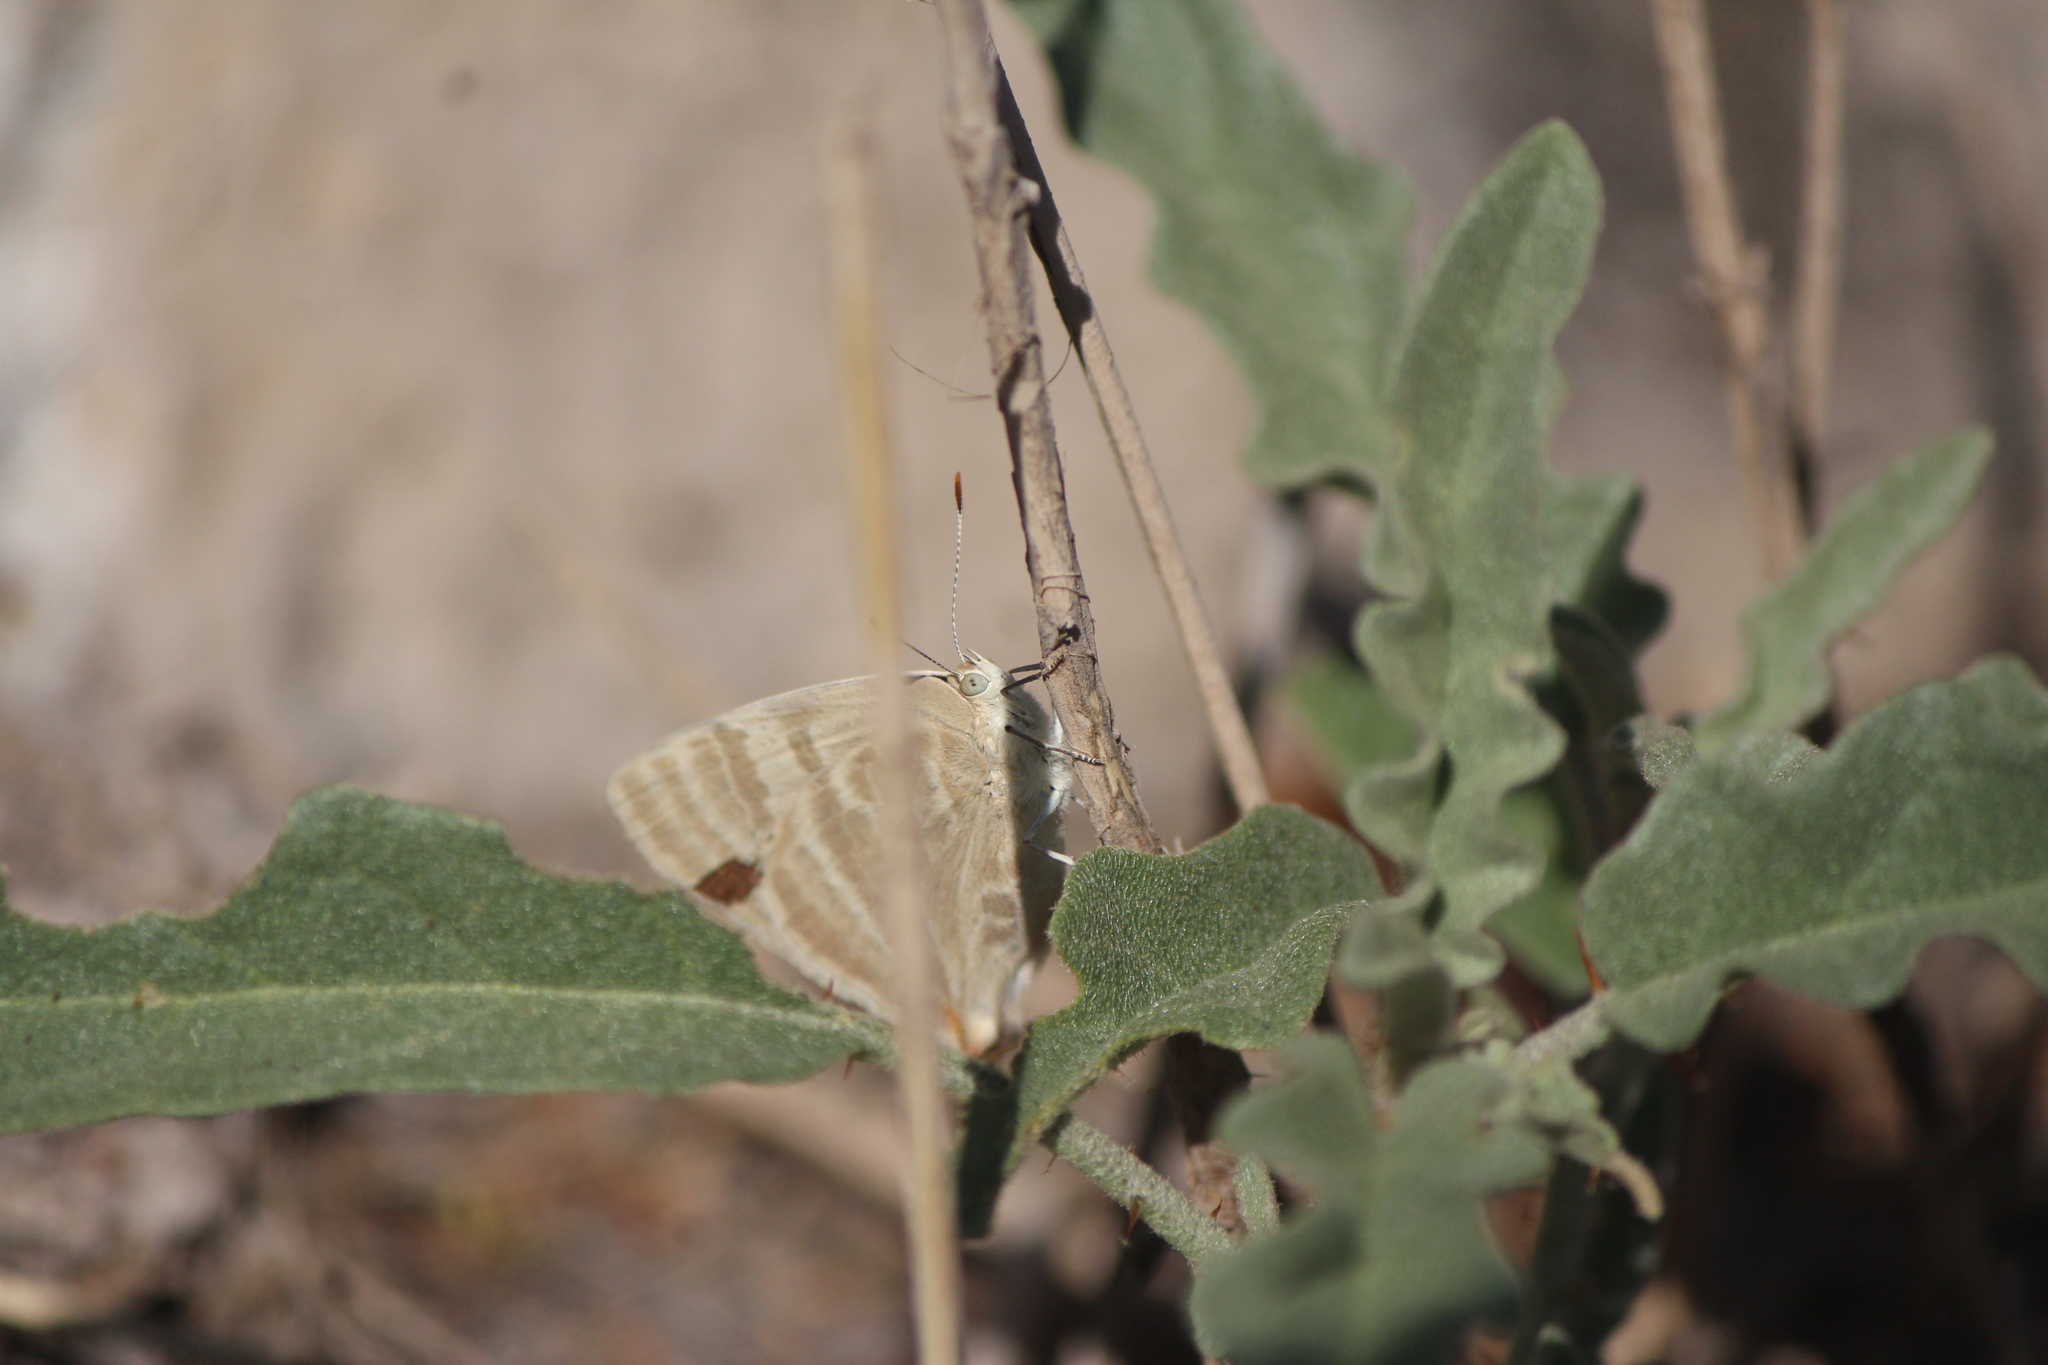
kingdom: Animalia
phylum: Arthropoda
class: Insecta
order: Lepidoptera
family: Lycaenidae
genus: Dolymorpha
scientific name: Dolymorpha jada
